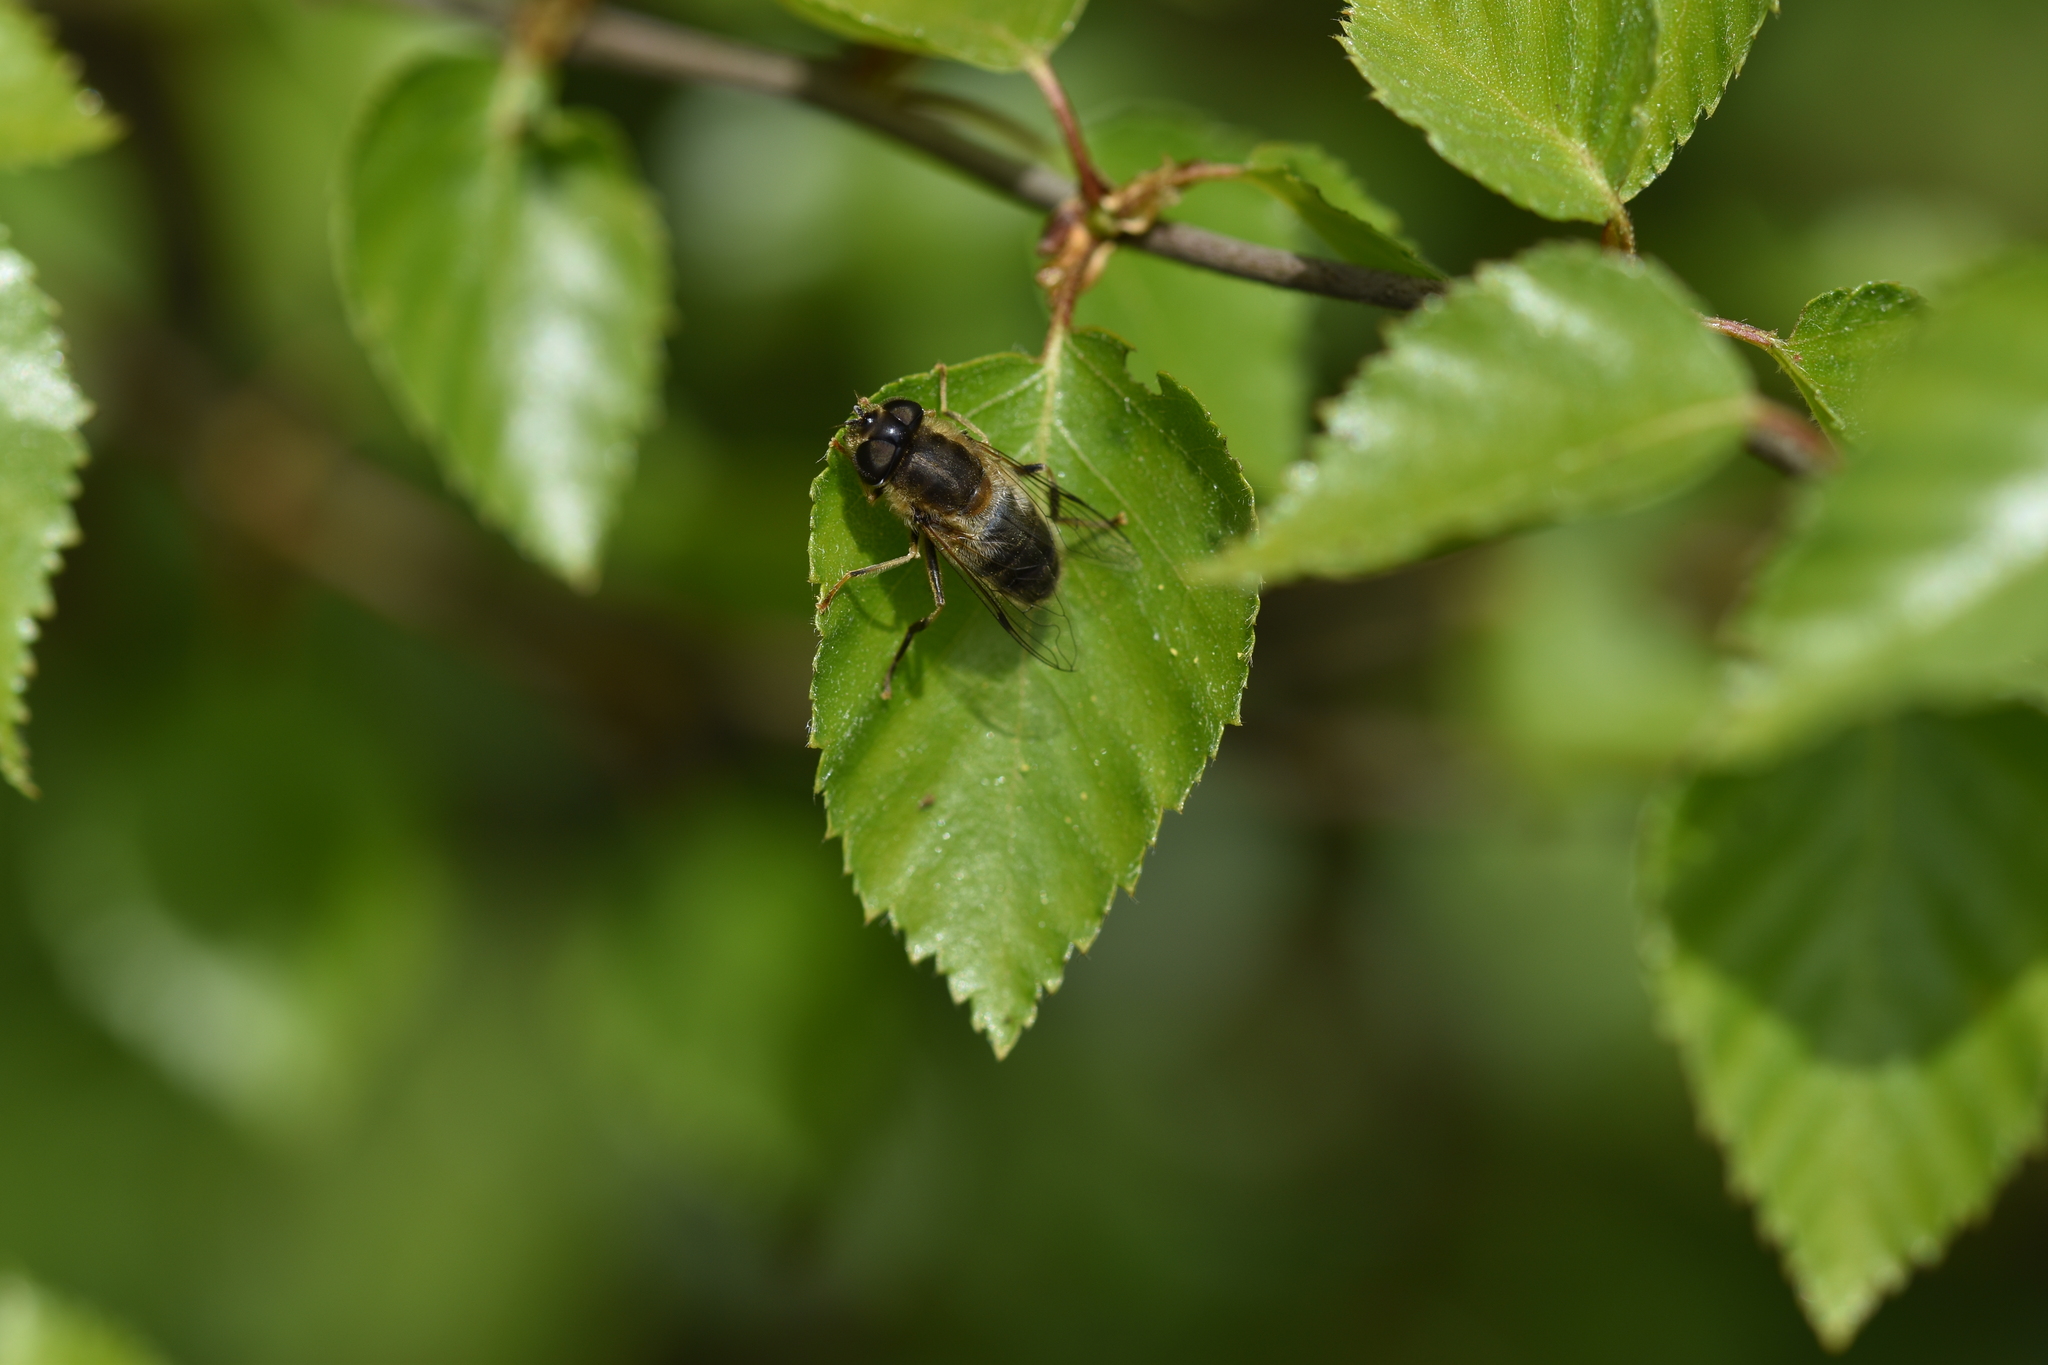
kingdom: Animalia
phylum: Arthropoda
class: Insecta
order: Diptera
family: Syrphidae
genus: Eristalis
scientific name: Eristalis pertinax
